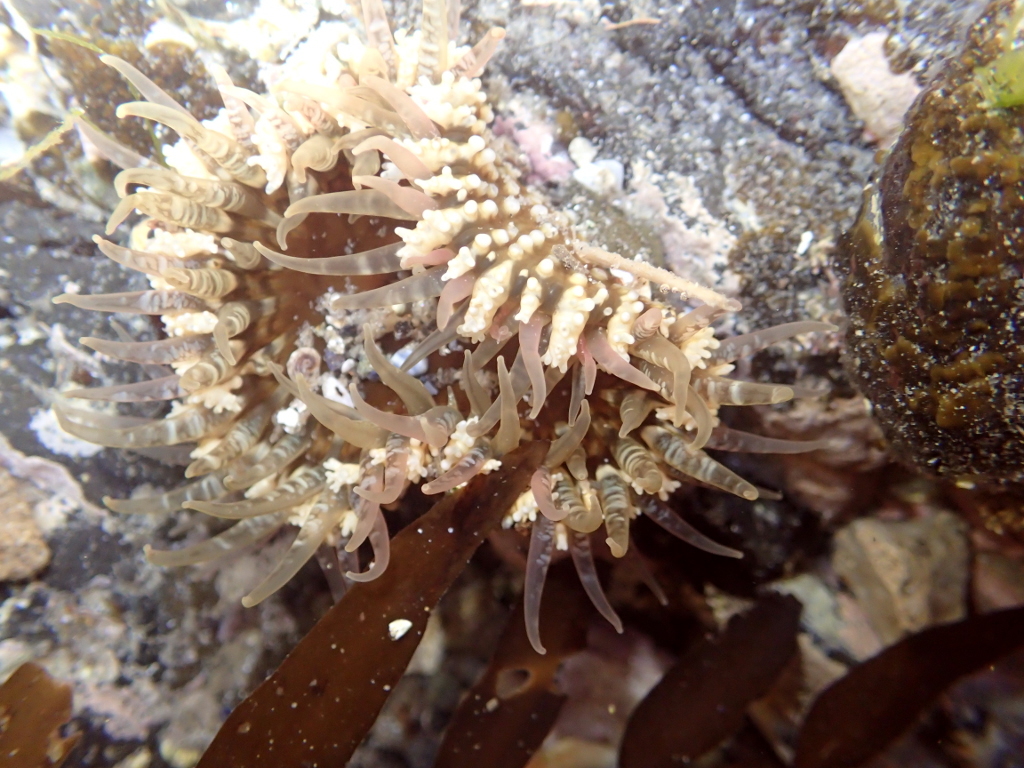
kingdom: Animalia
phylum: Cnidaria
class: Anthozoa
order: Actiniaria
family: Actiniidae
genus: Oulactis
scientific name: Oulactis muscosa
